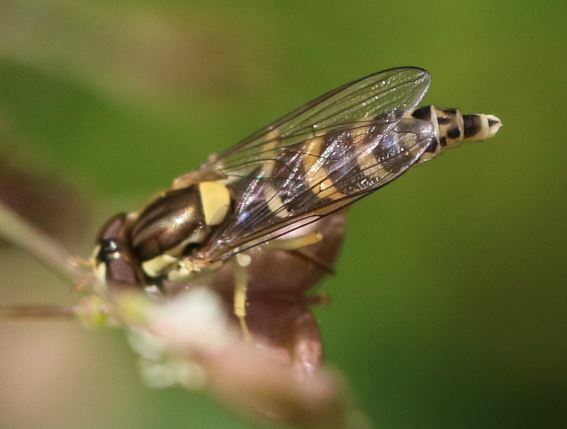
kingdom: Animalia
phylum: Arthropoda
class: Insecta
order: Diptera
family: Syrphidae
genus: Sphaerophoria
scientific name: Sphaerophoria
